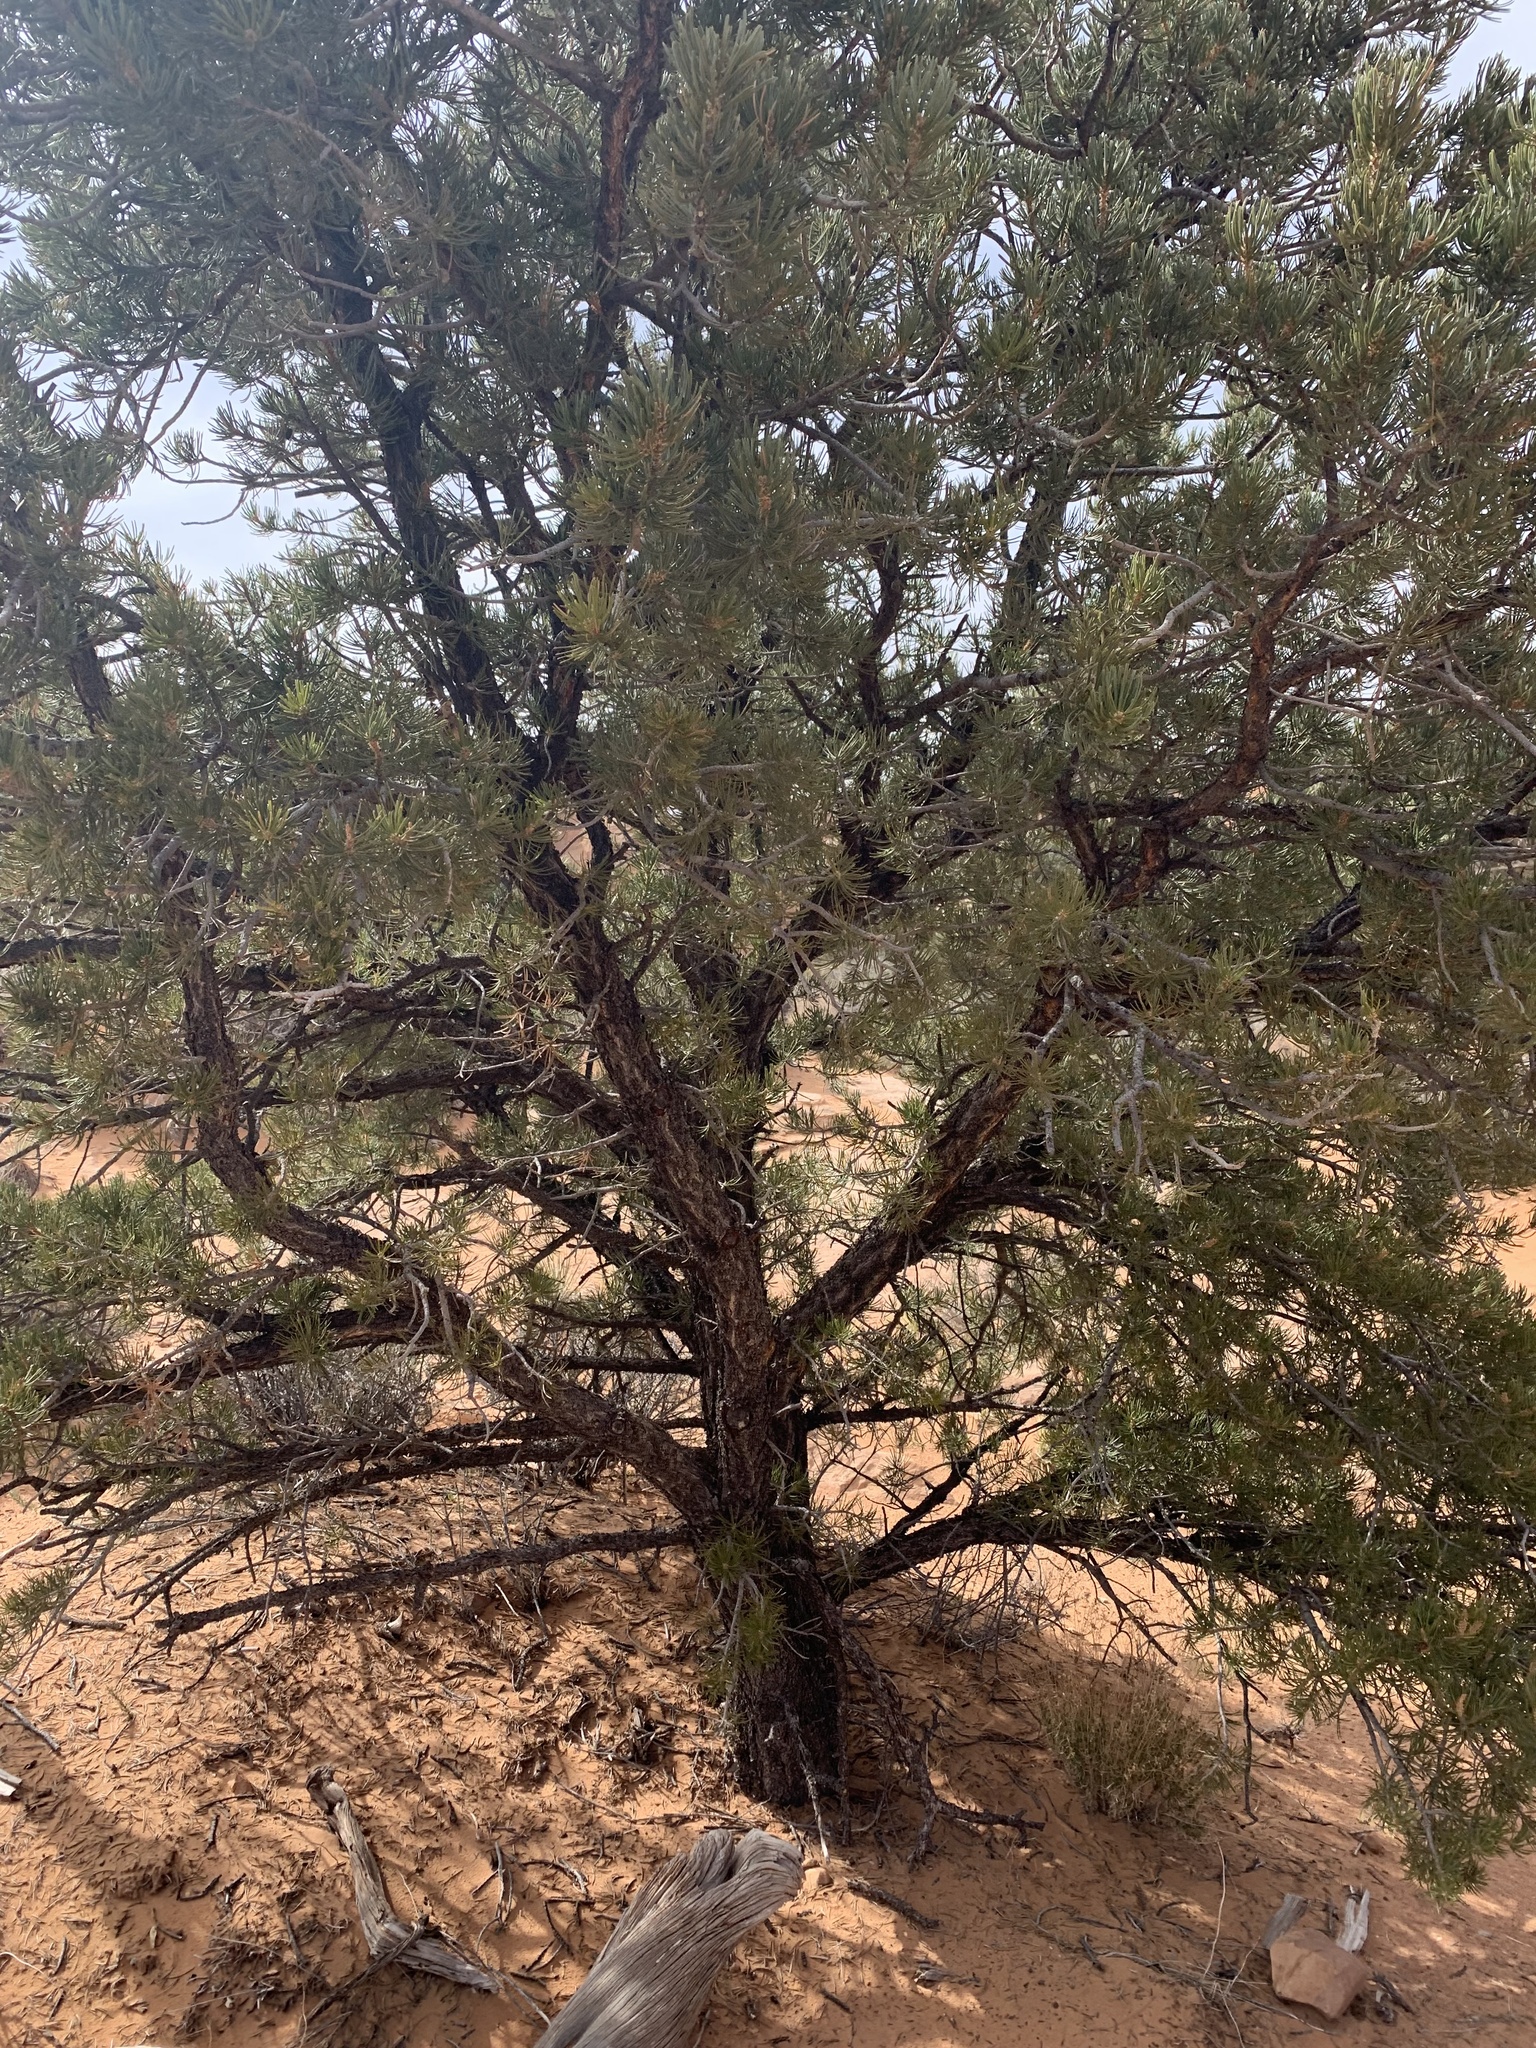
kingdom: Plantae
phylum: Tracheophyta
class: Pinopsida
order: Pinales
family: Pinaceae
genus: Pinus
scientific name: Pinus edulis
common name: Colorado pinyon
